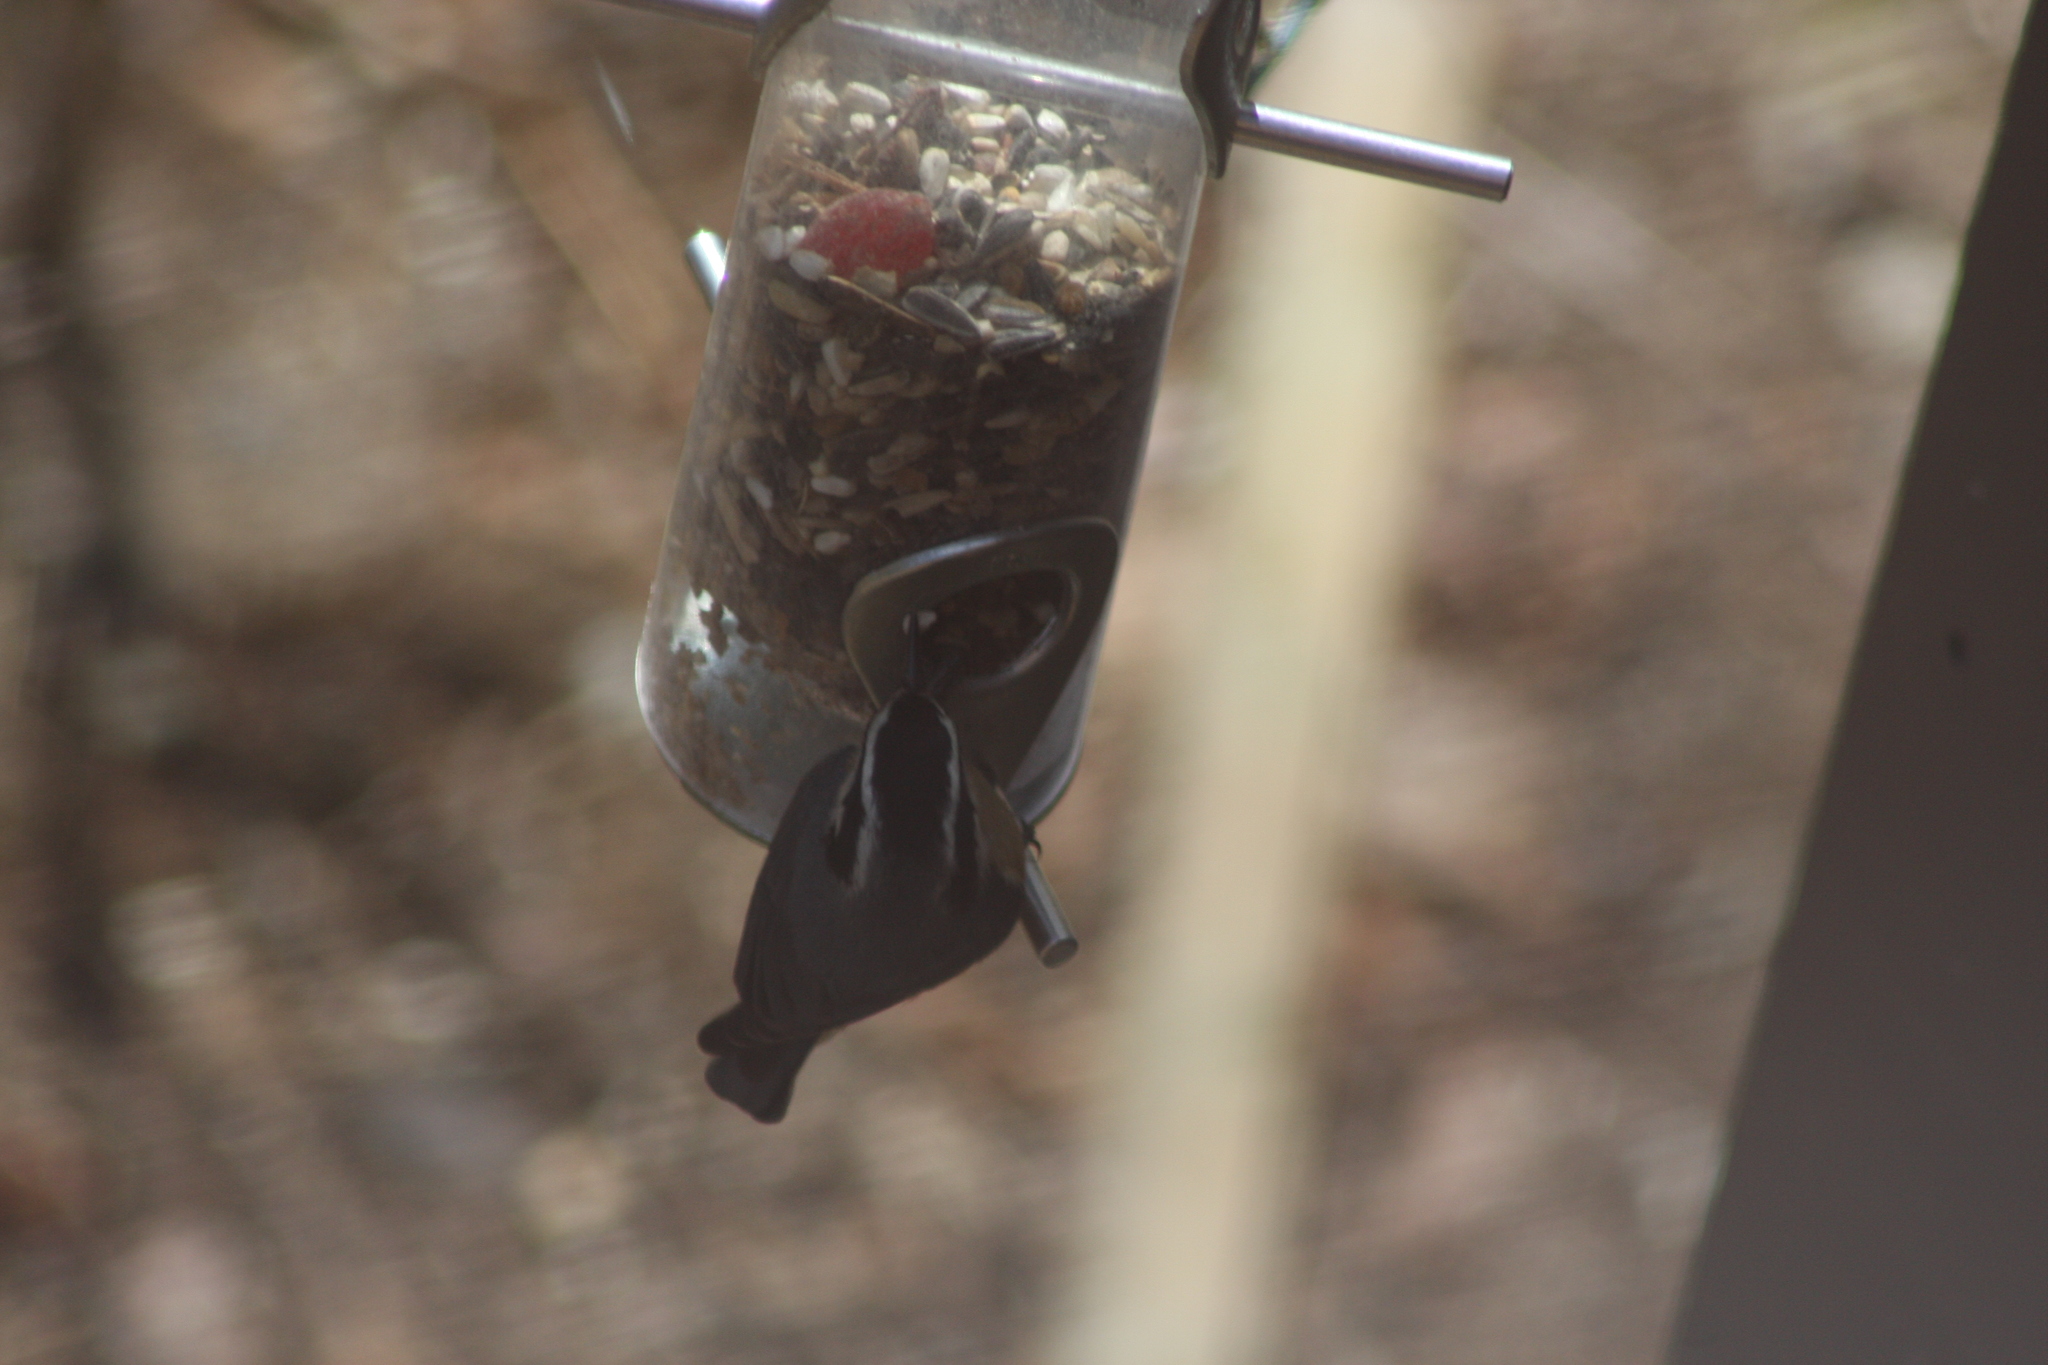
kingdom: Animalia
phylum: Chordata
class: Aves
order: Passeriformes
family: Sittidae
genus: Sitta
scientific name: Sitta canadensis
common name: Red-breasted nuthatch
